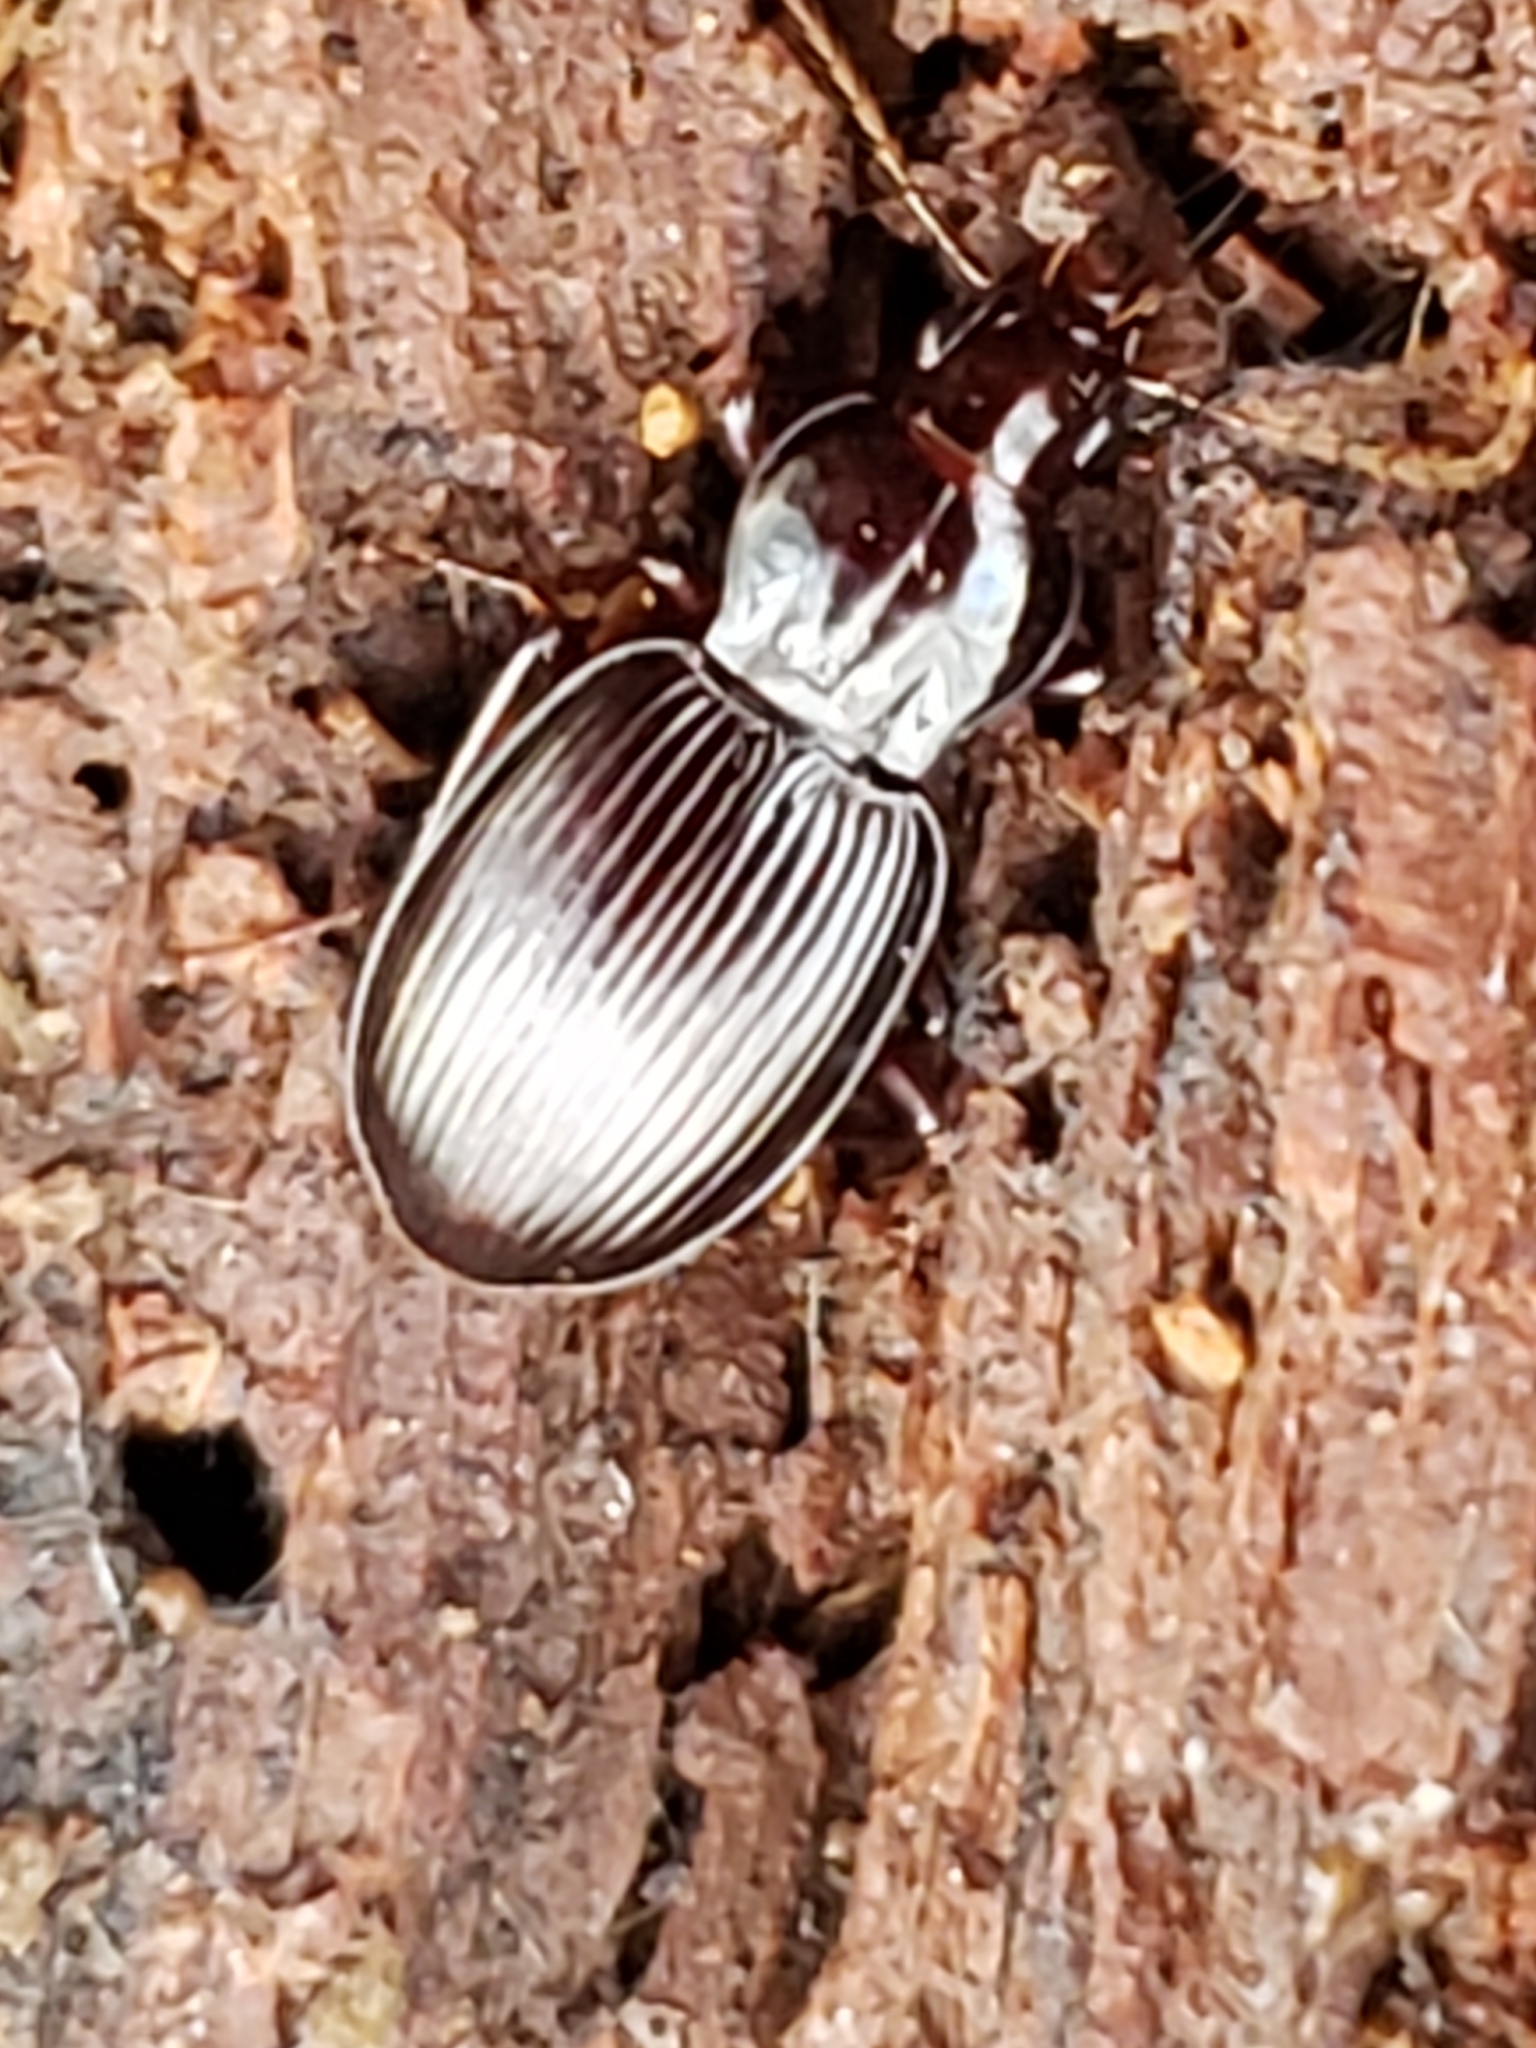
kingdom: Animalia
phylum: Arthropoda
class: Insecta
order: Coleoptera
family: Carabidae
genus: Gastrellarius
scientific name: Gastrellarius honestus
